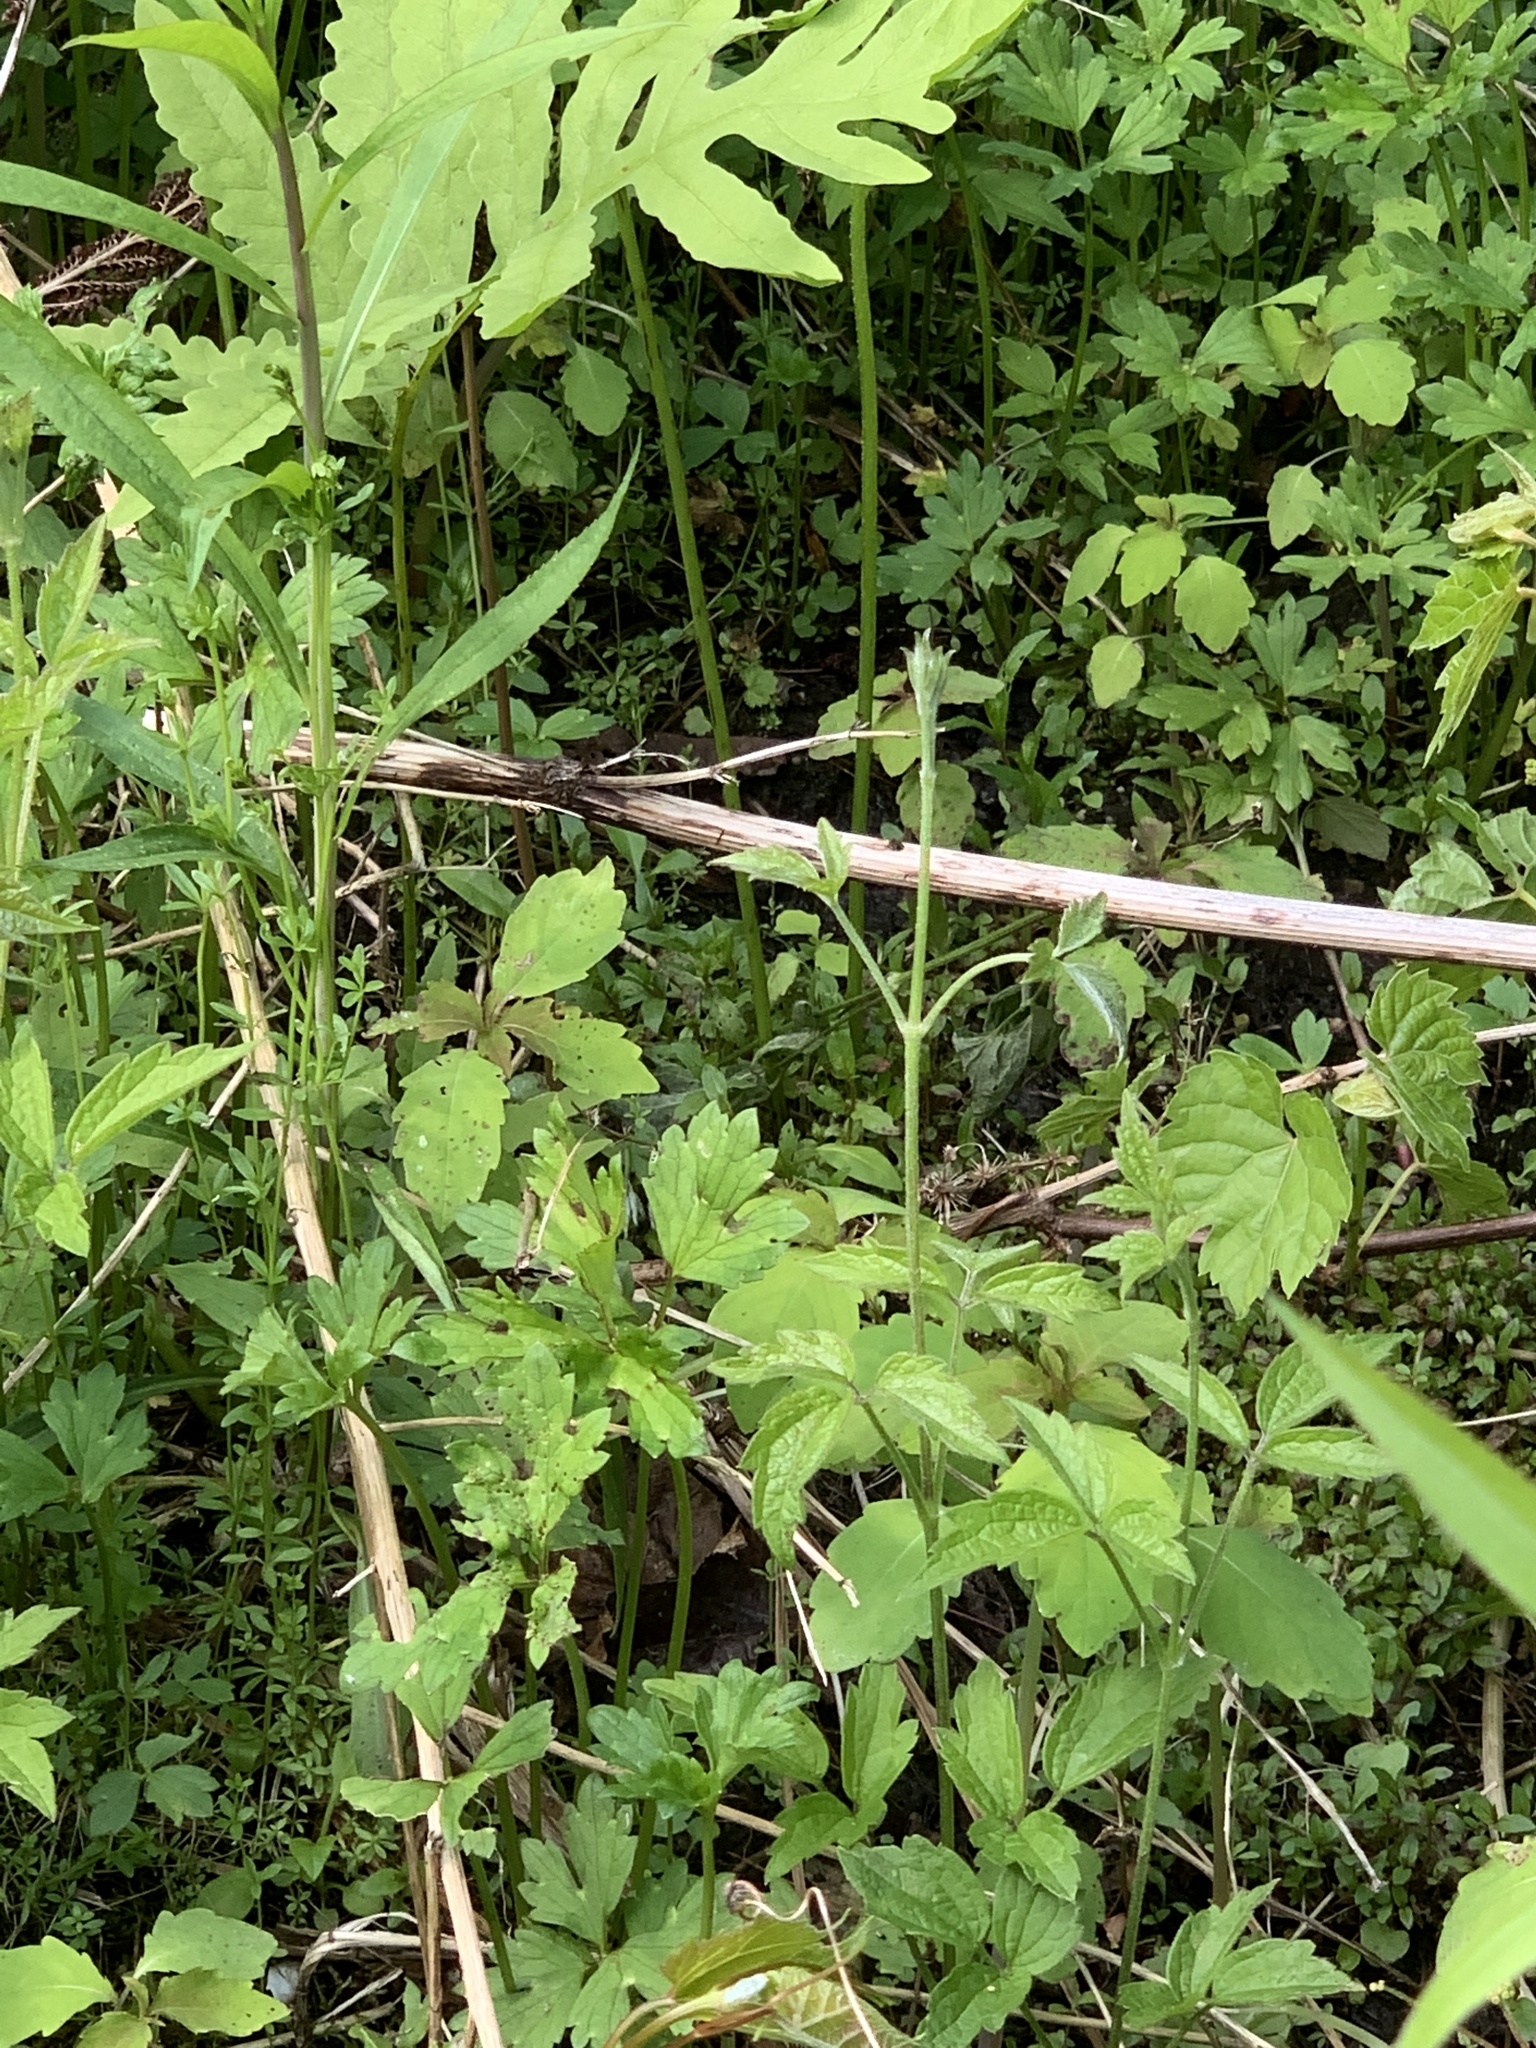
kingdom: Plantae
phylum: Tracheophyta
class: Magnoliopsida
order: Ranunculales
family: Ranunculaceae
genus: Clematis
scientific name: Clematis virginiana
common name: Virgin's-bower
